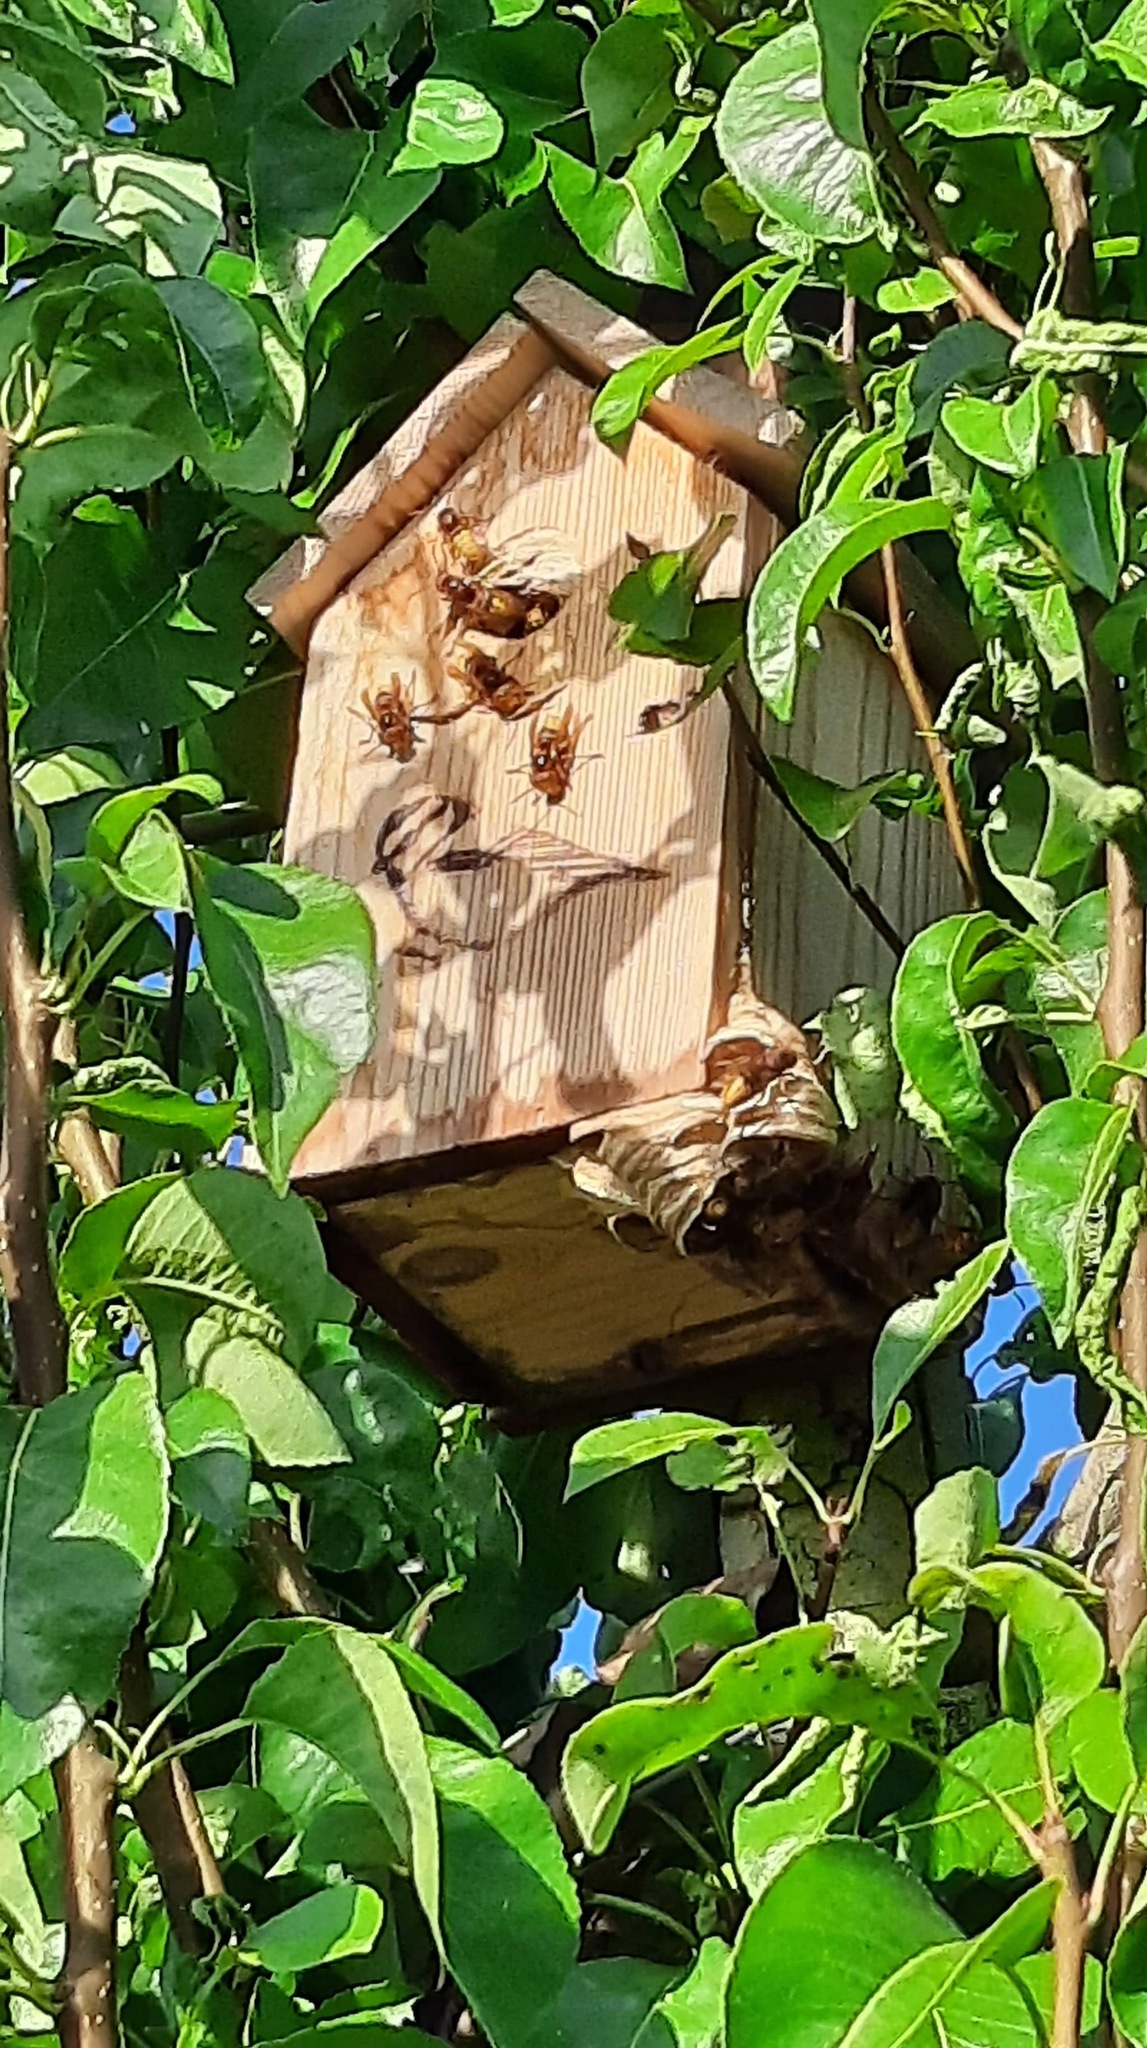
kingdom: Animalia
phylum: Arthropoda
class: Insecta
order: Hymenoptera
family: Vespidae
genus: Vespa
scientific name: Vespa crabro
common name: Hornet
